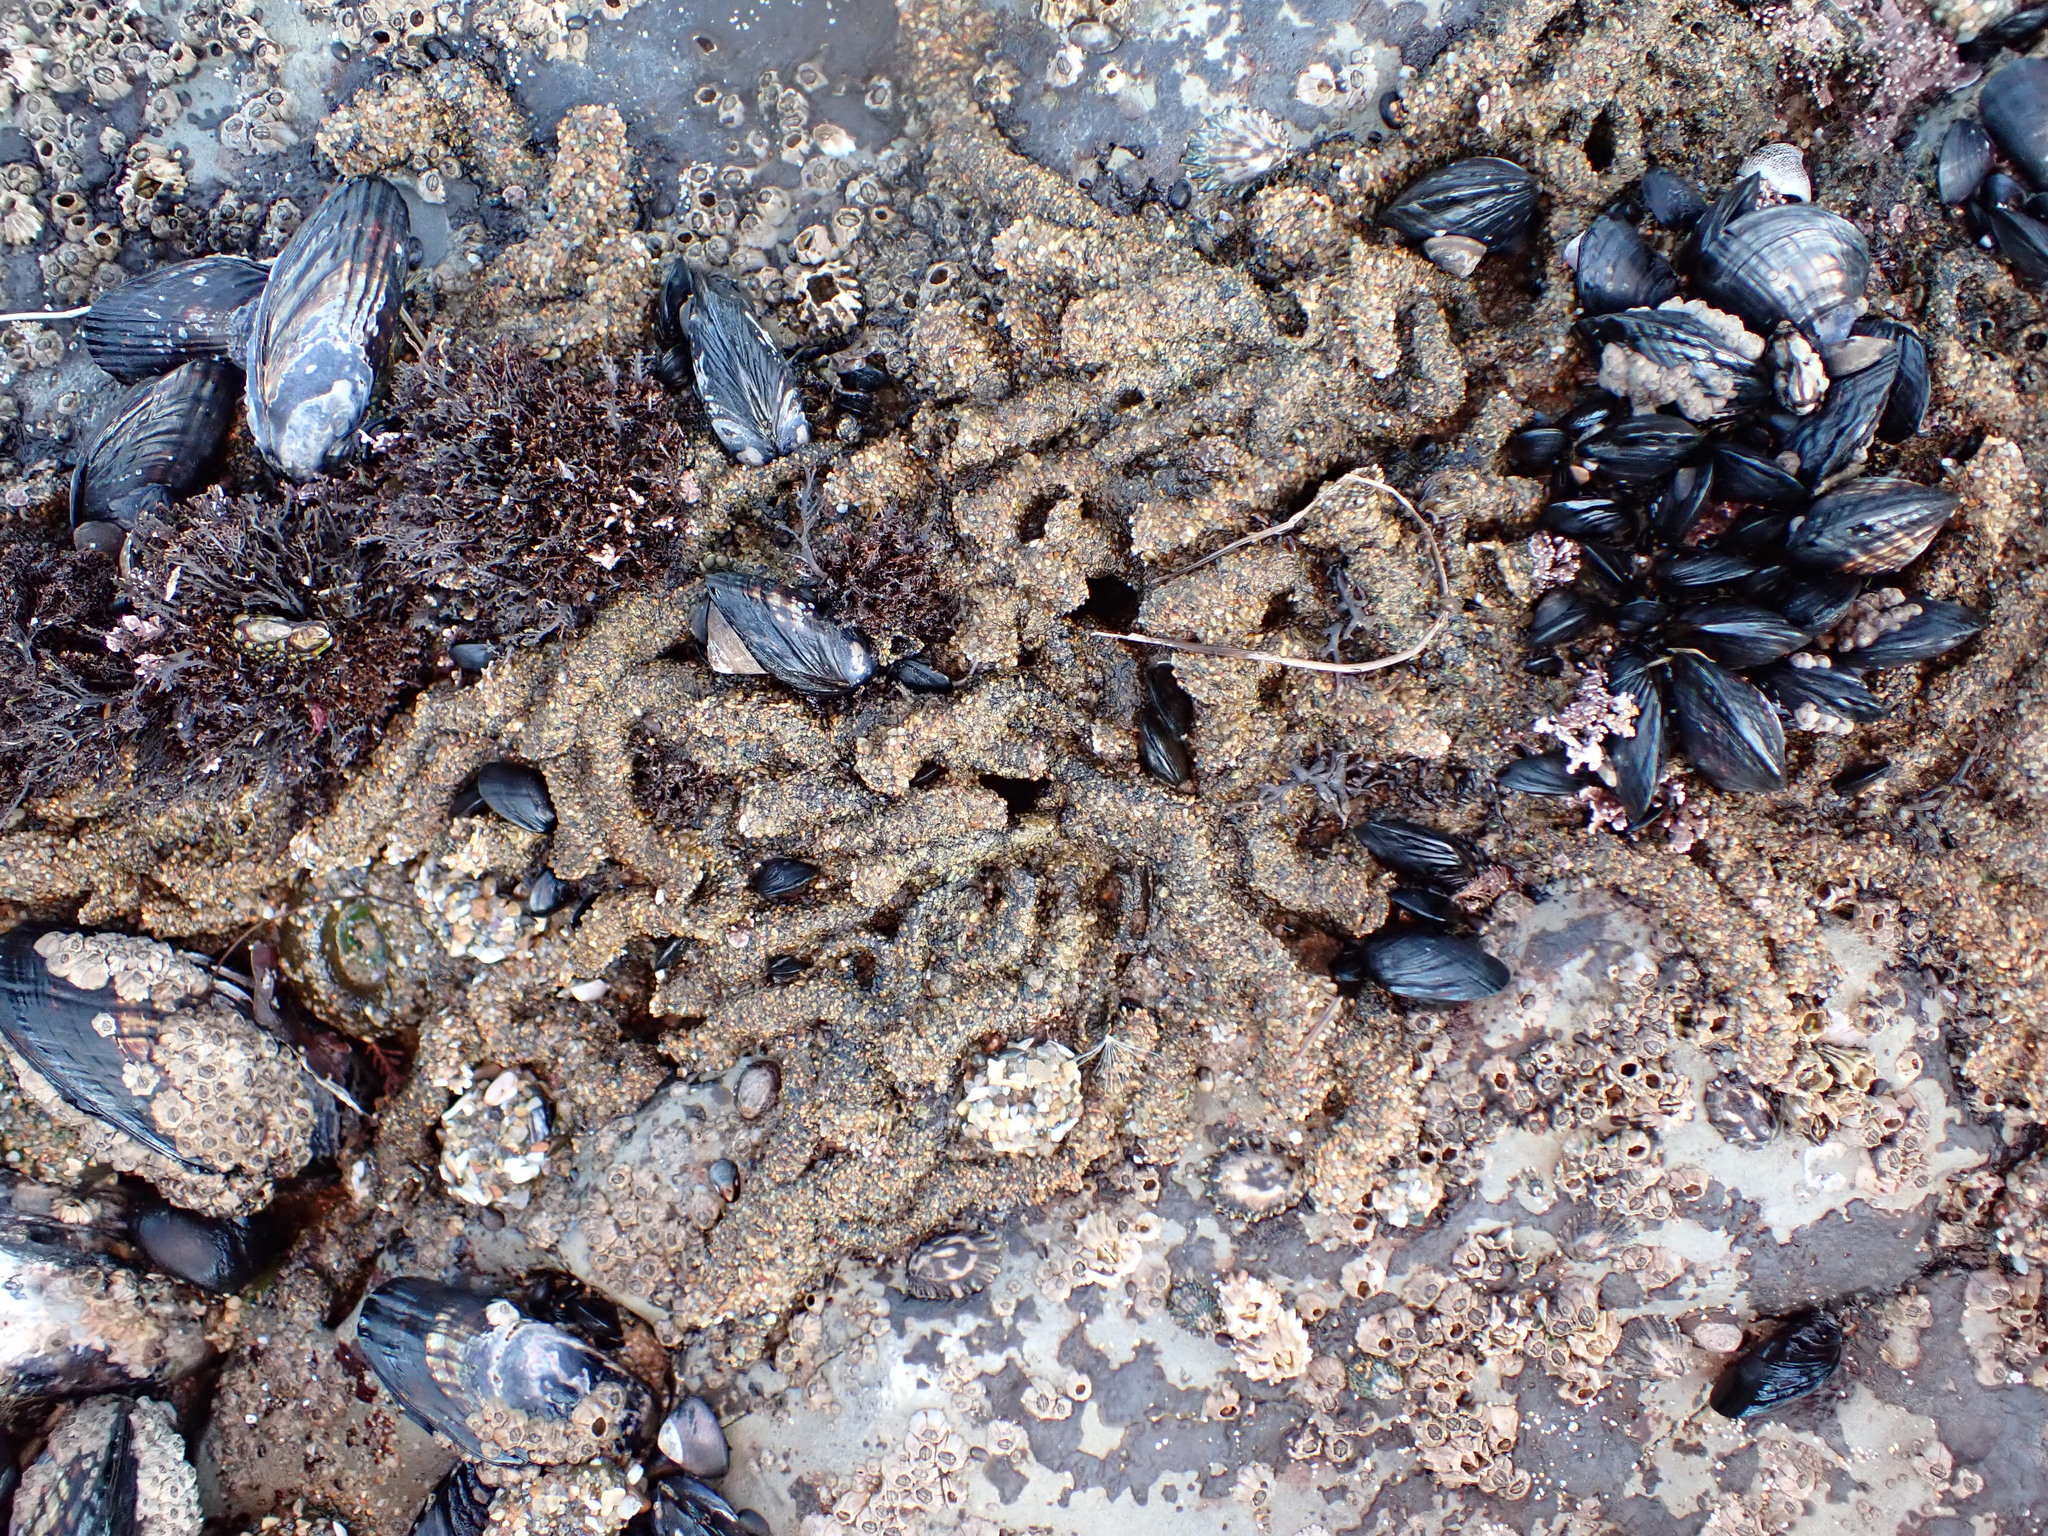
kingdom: Animalia
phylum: Annelida
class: Polychaeta
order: Sabellida
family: Sabellariidae
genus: Phragmatopoma
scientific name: Phragmatopoma californica
